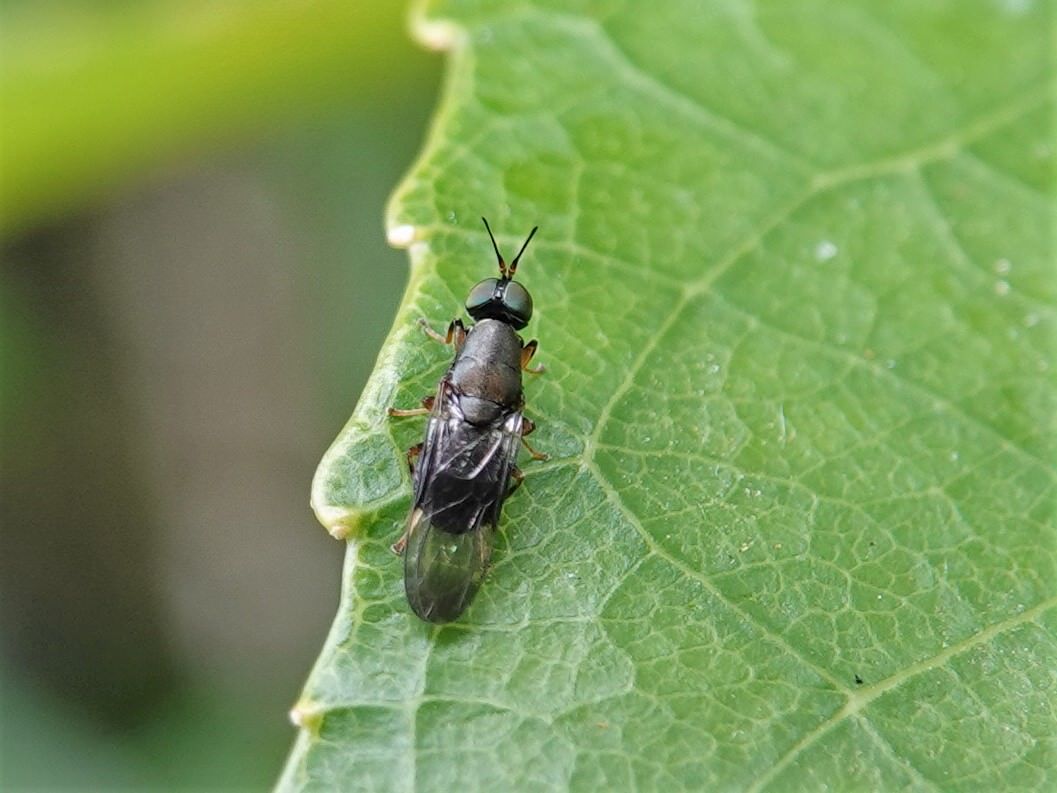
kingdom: Animalia
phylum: Arthropoda
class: Insecta
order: Diptera
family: Stratiomyidae
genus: Dysbiota
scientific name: Dysbiota peregrina
